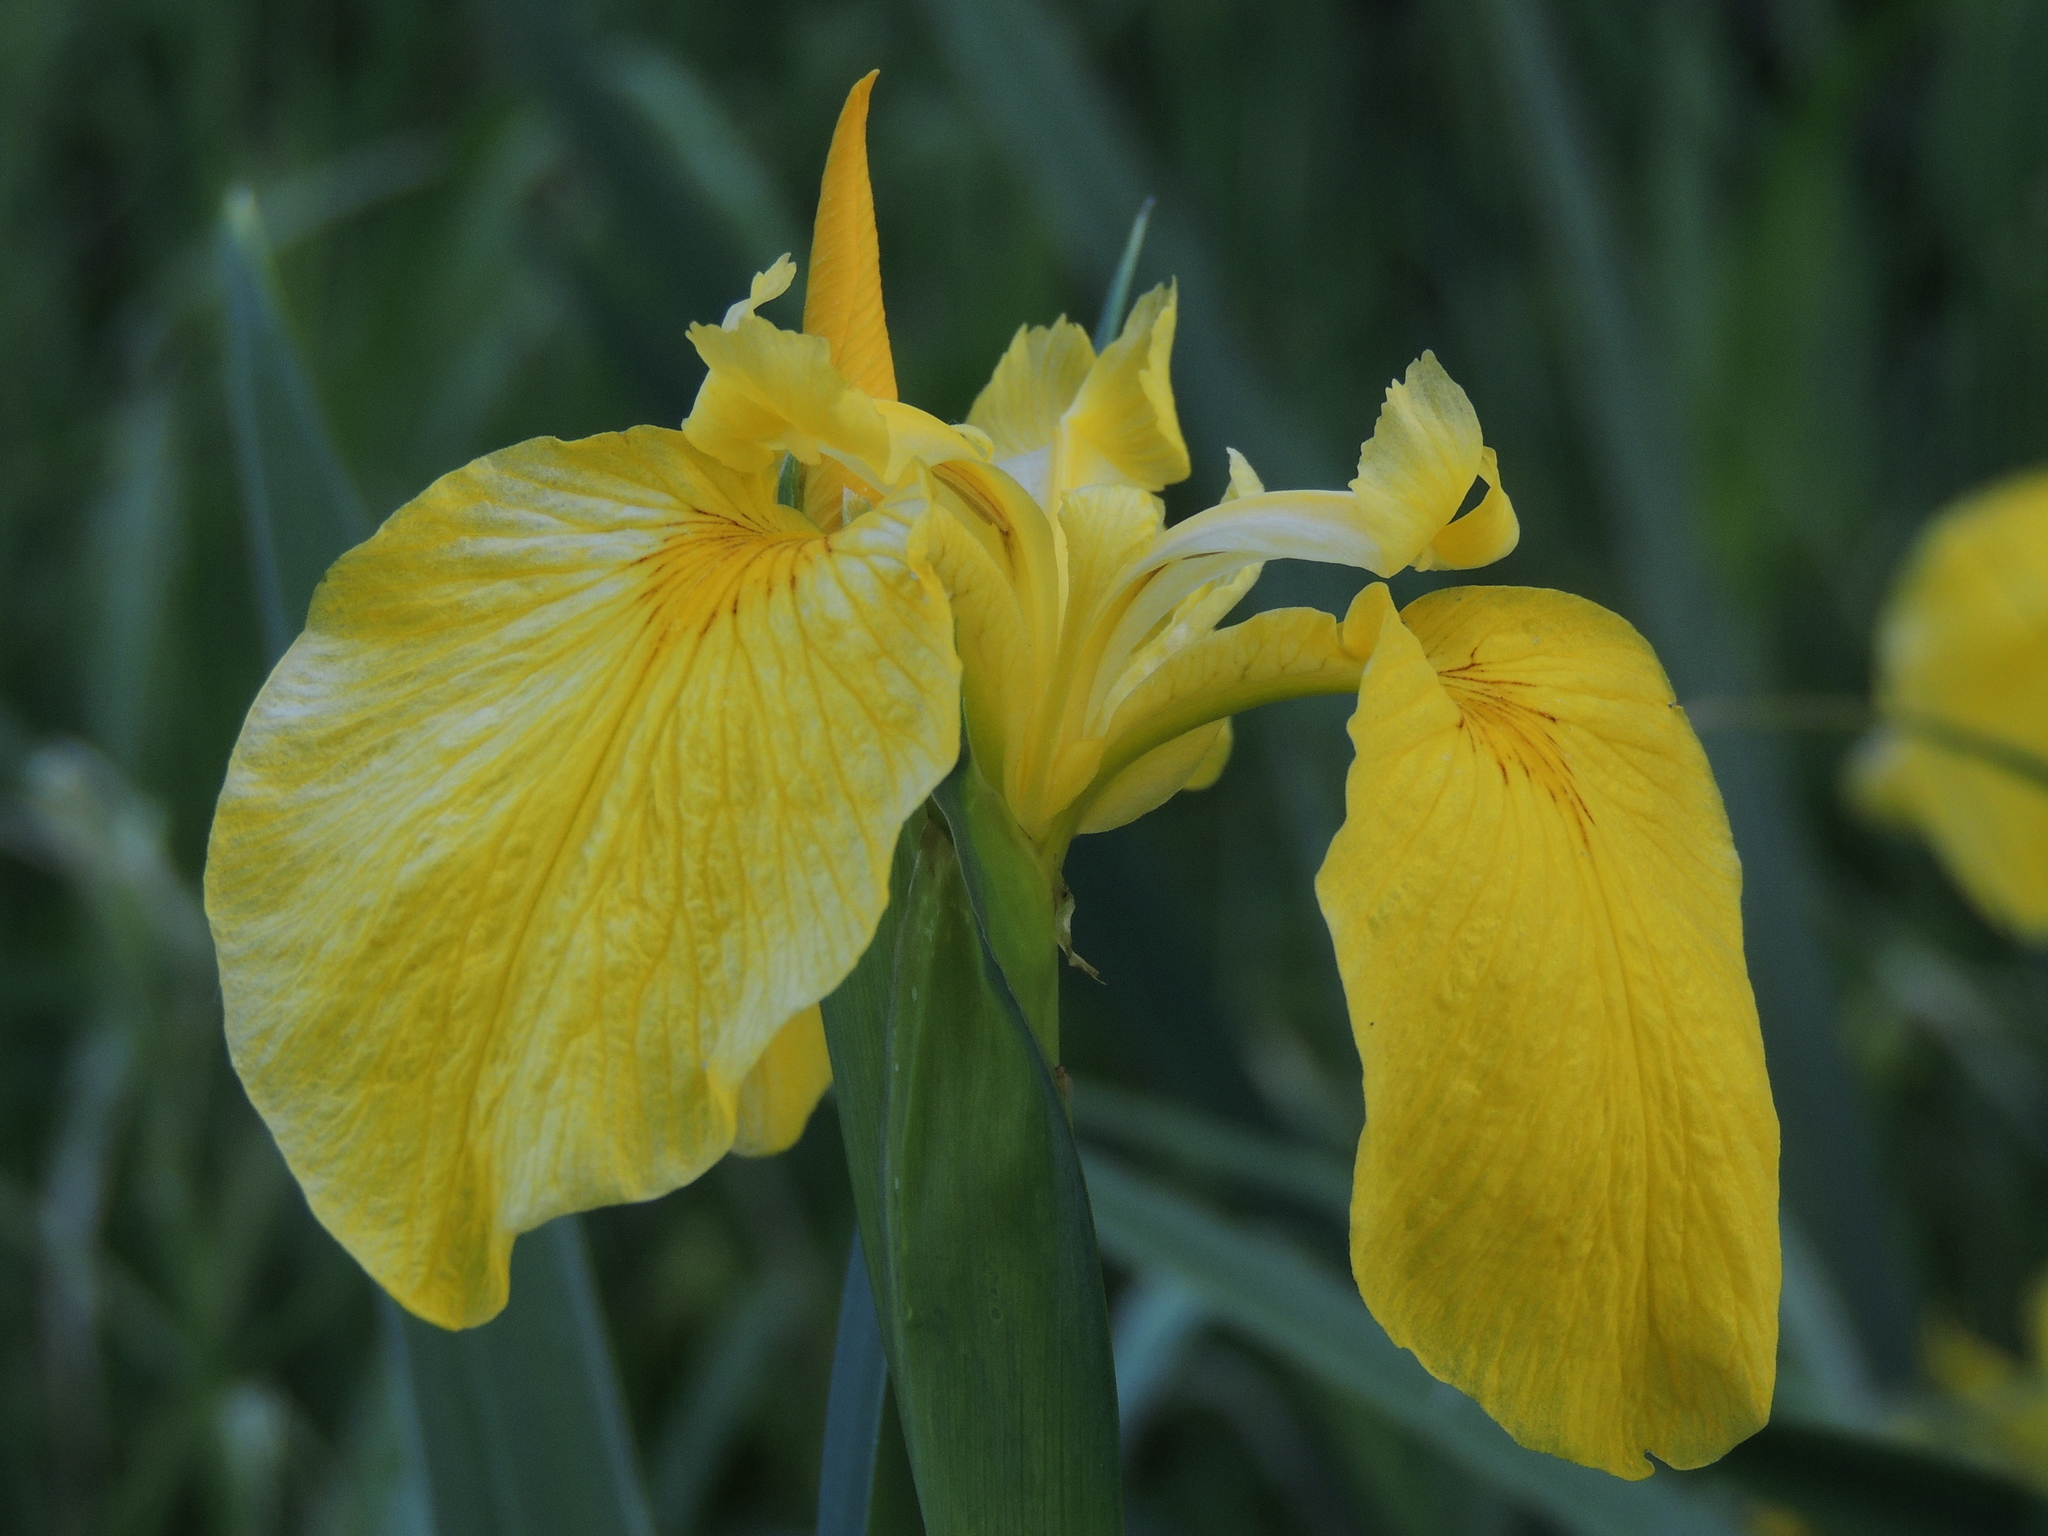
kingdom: Plantae
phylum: Tracheophyta
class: Liliopsida
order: Asparagales
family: Iridaceae
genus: Iris
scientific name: Iris pseudacorus
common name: Yellow flag
